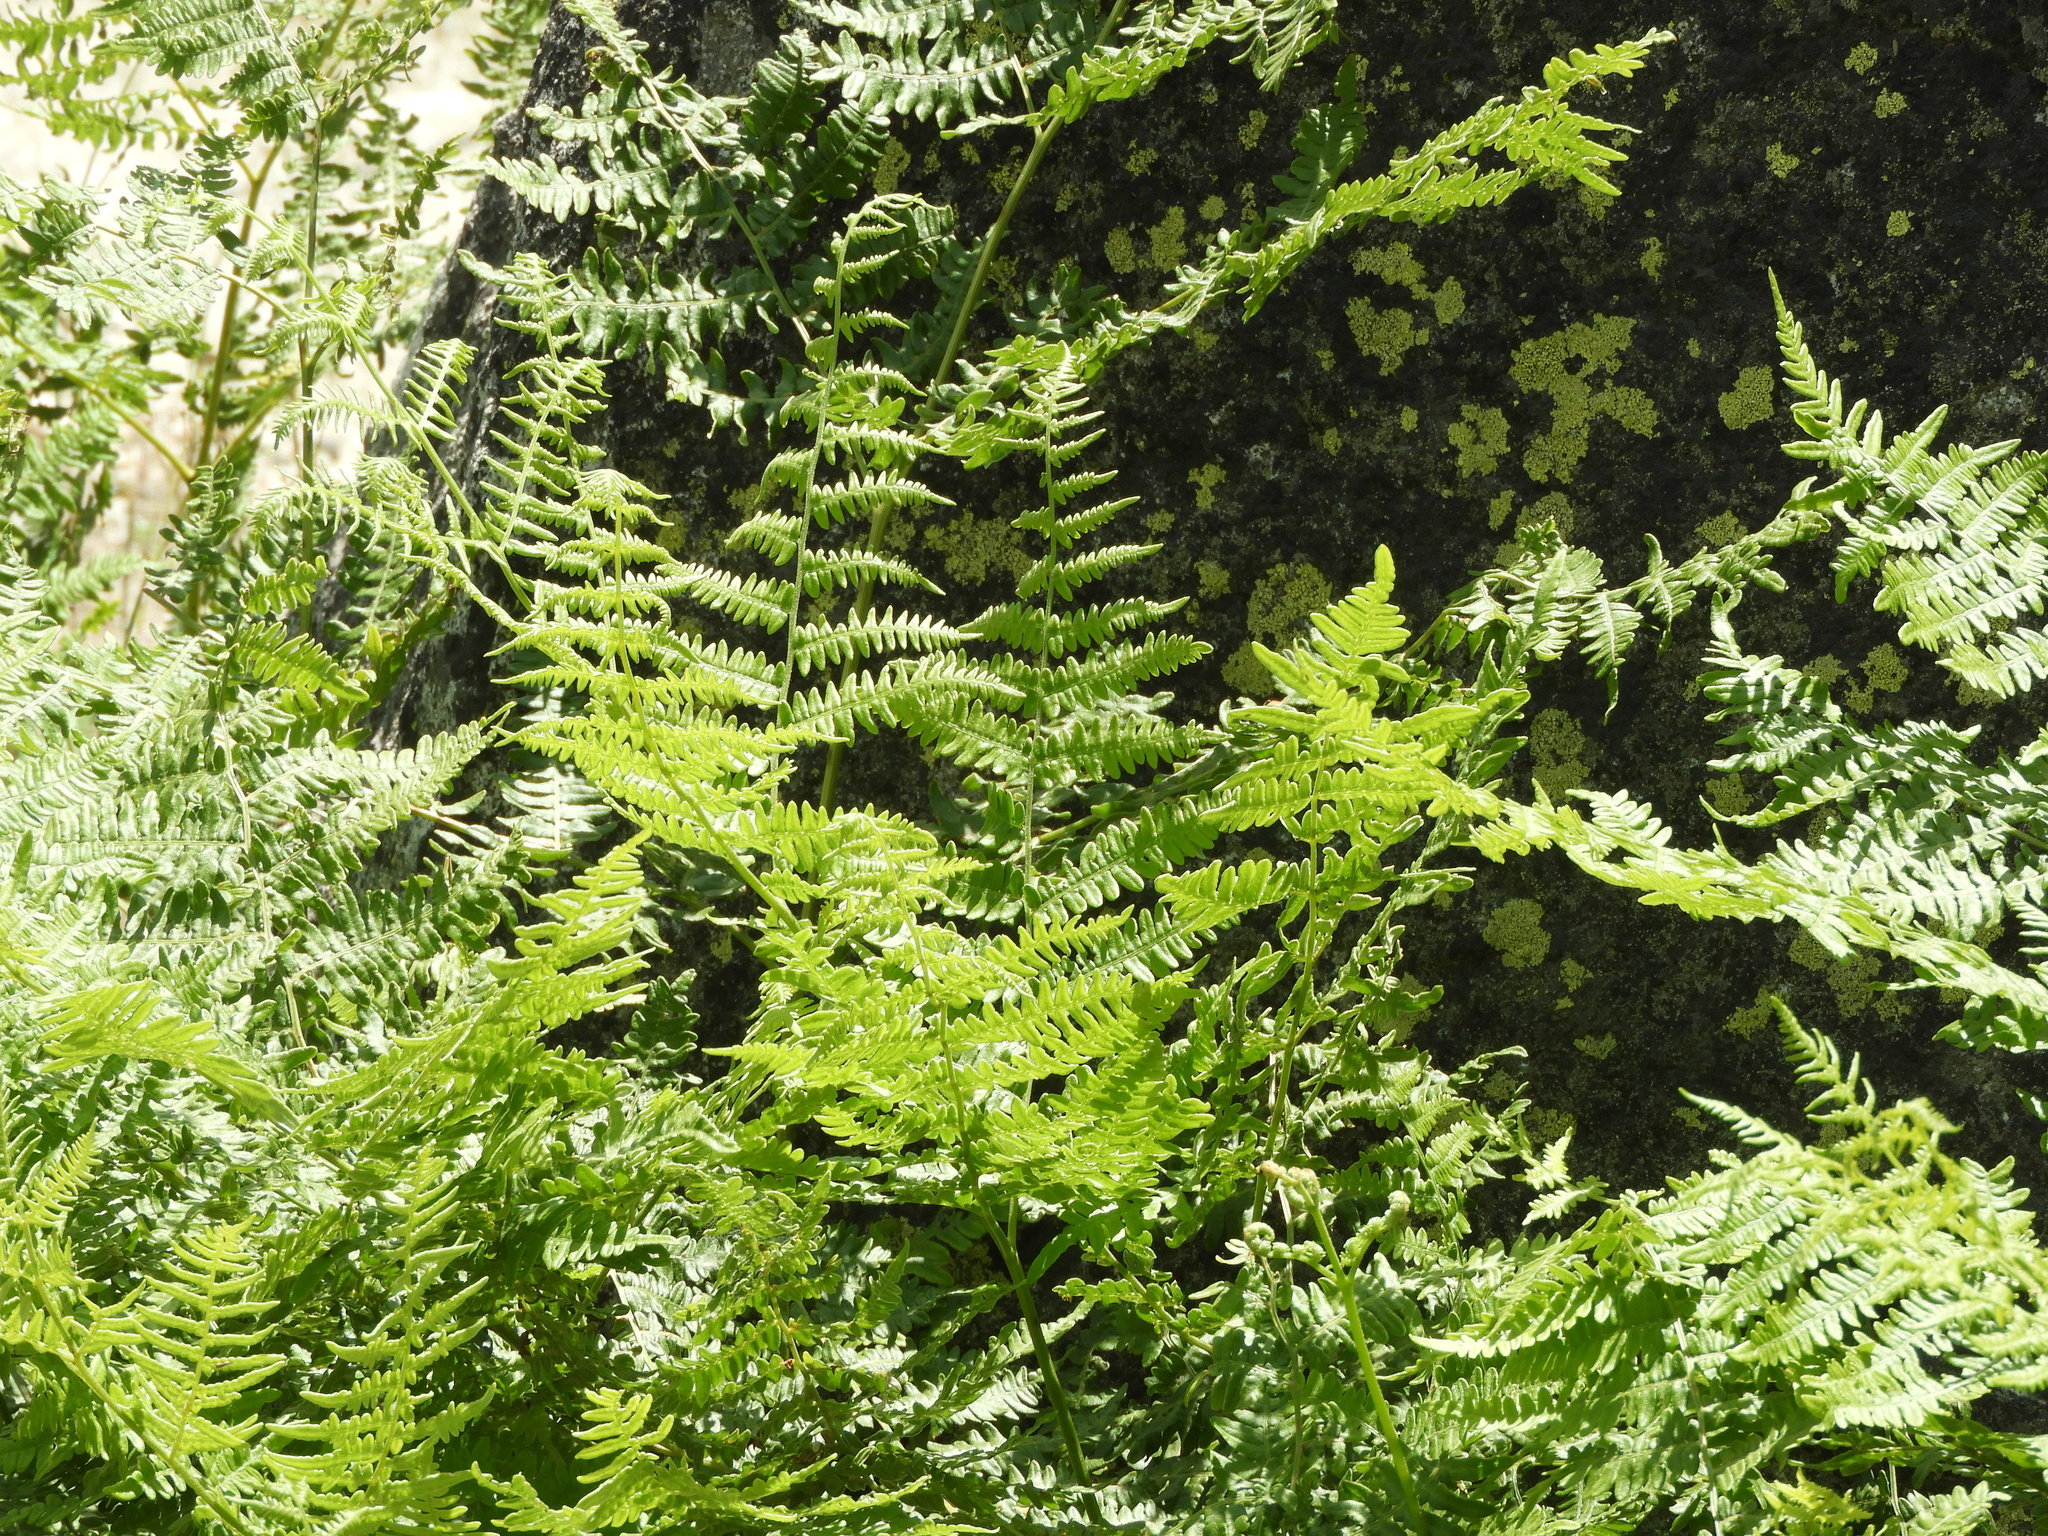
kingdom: Plantae
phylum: Tracheophyta
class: Polypodiopsida
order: Polypodiales
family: Dennstaedtiaceae
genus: Pteridium
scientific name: Pteridium aquilinum
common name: Bracken
